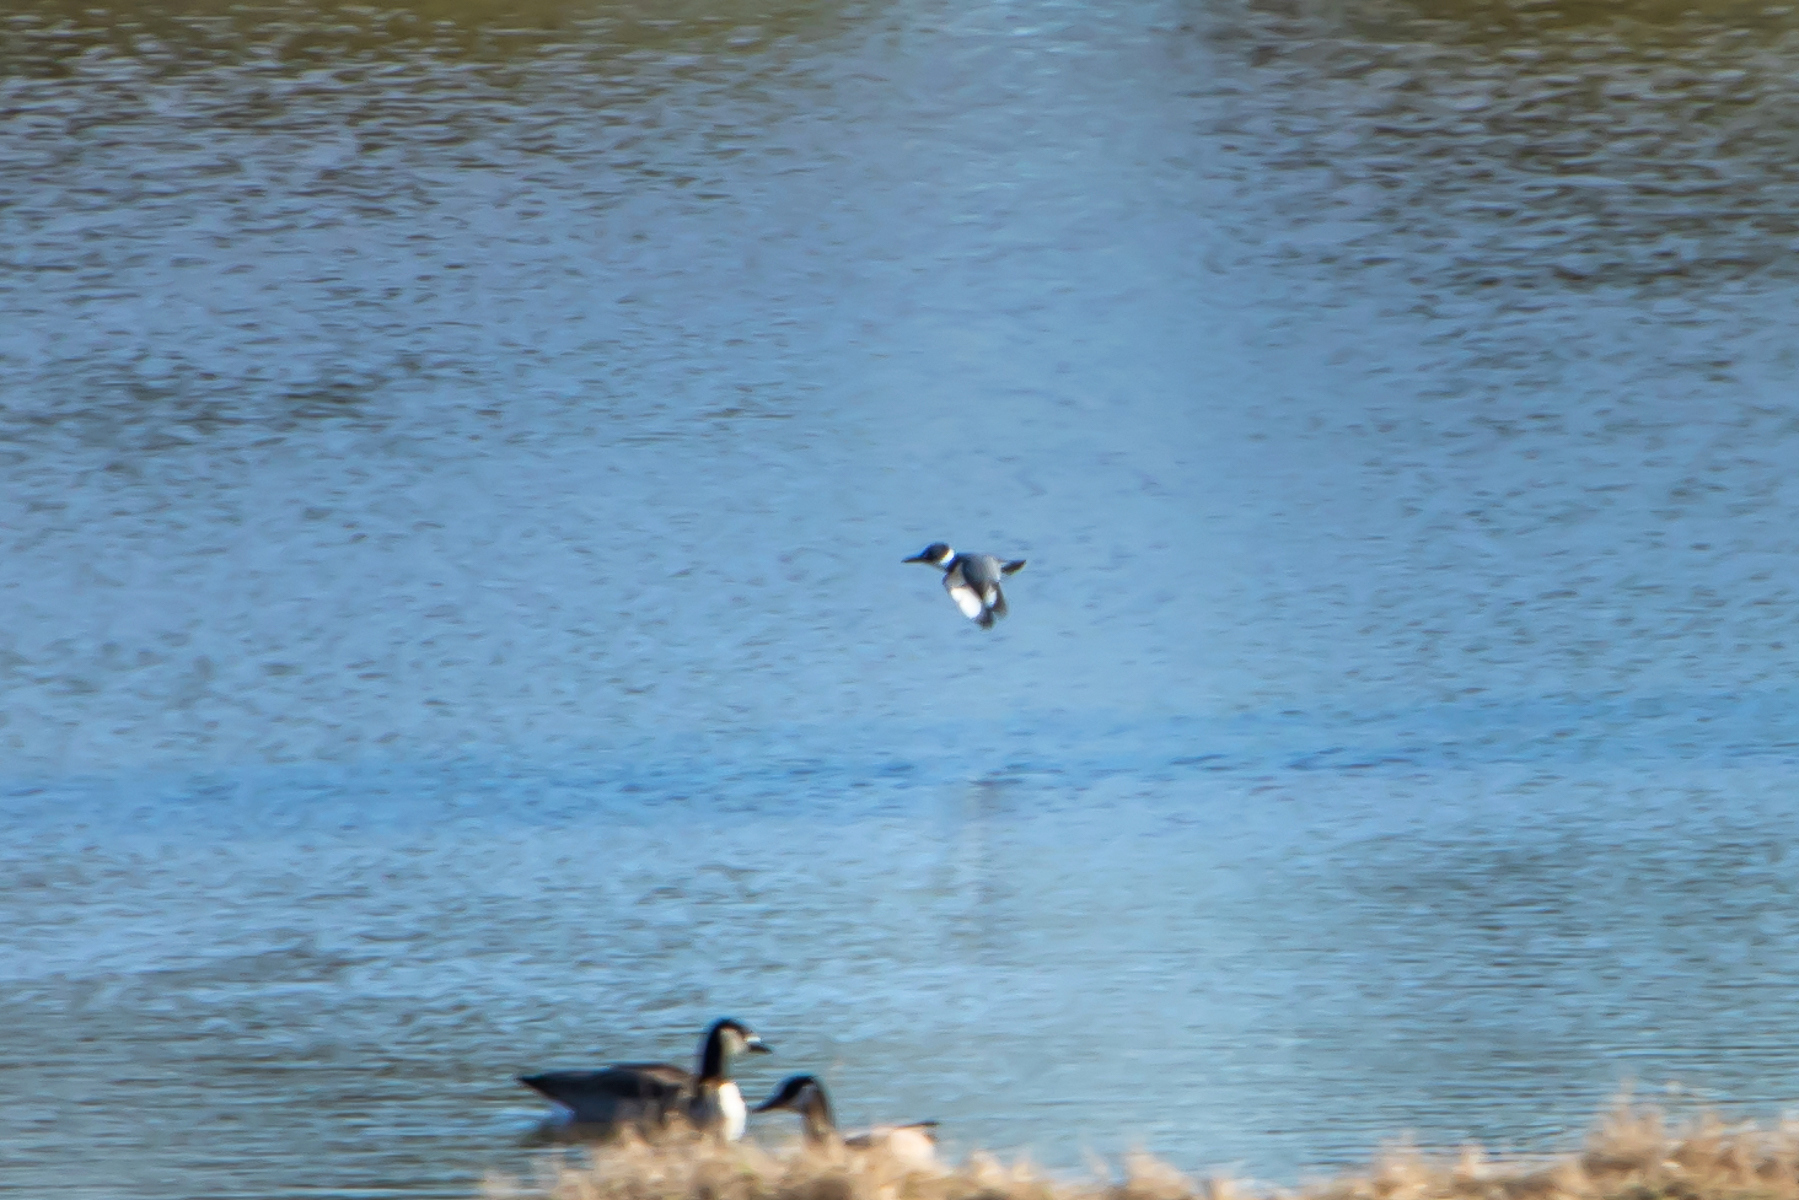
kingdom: Animalia
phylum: Chordata
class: Aves
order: Coraciiformes
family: Alcedinidae
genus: Megaceryle
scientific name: Megaceryle alcyon
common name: Belted kingfisher
